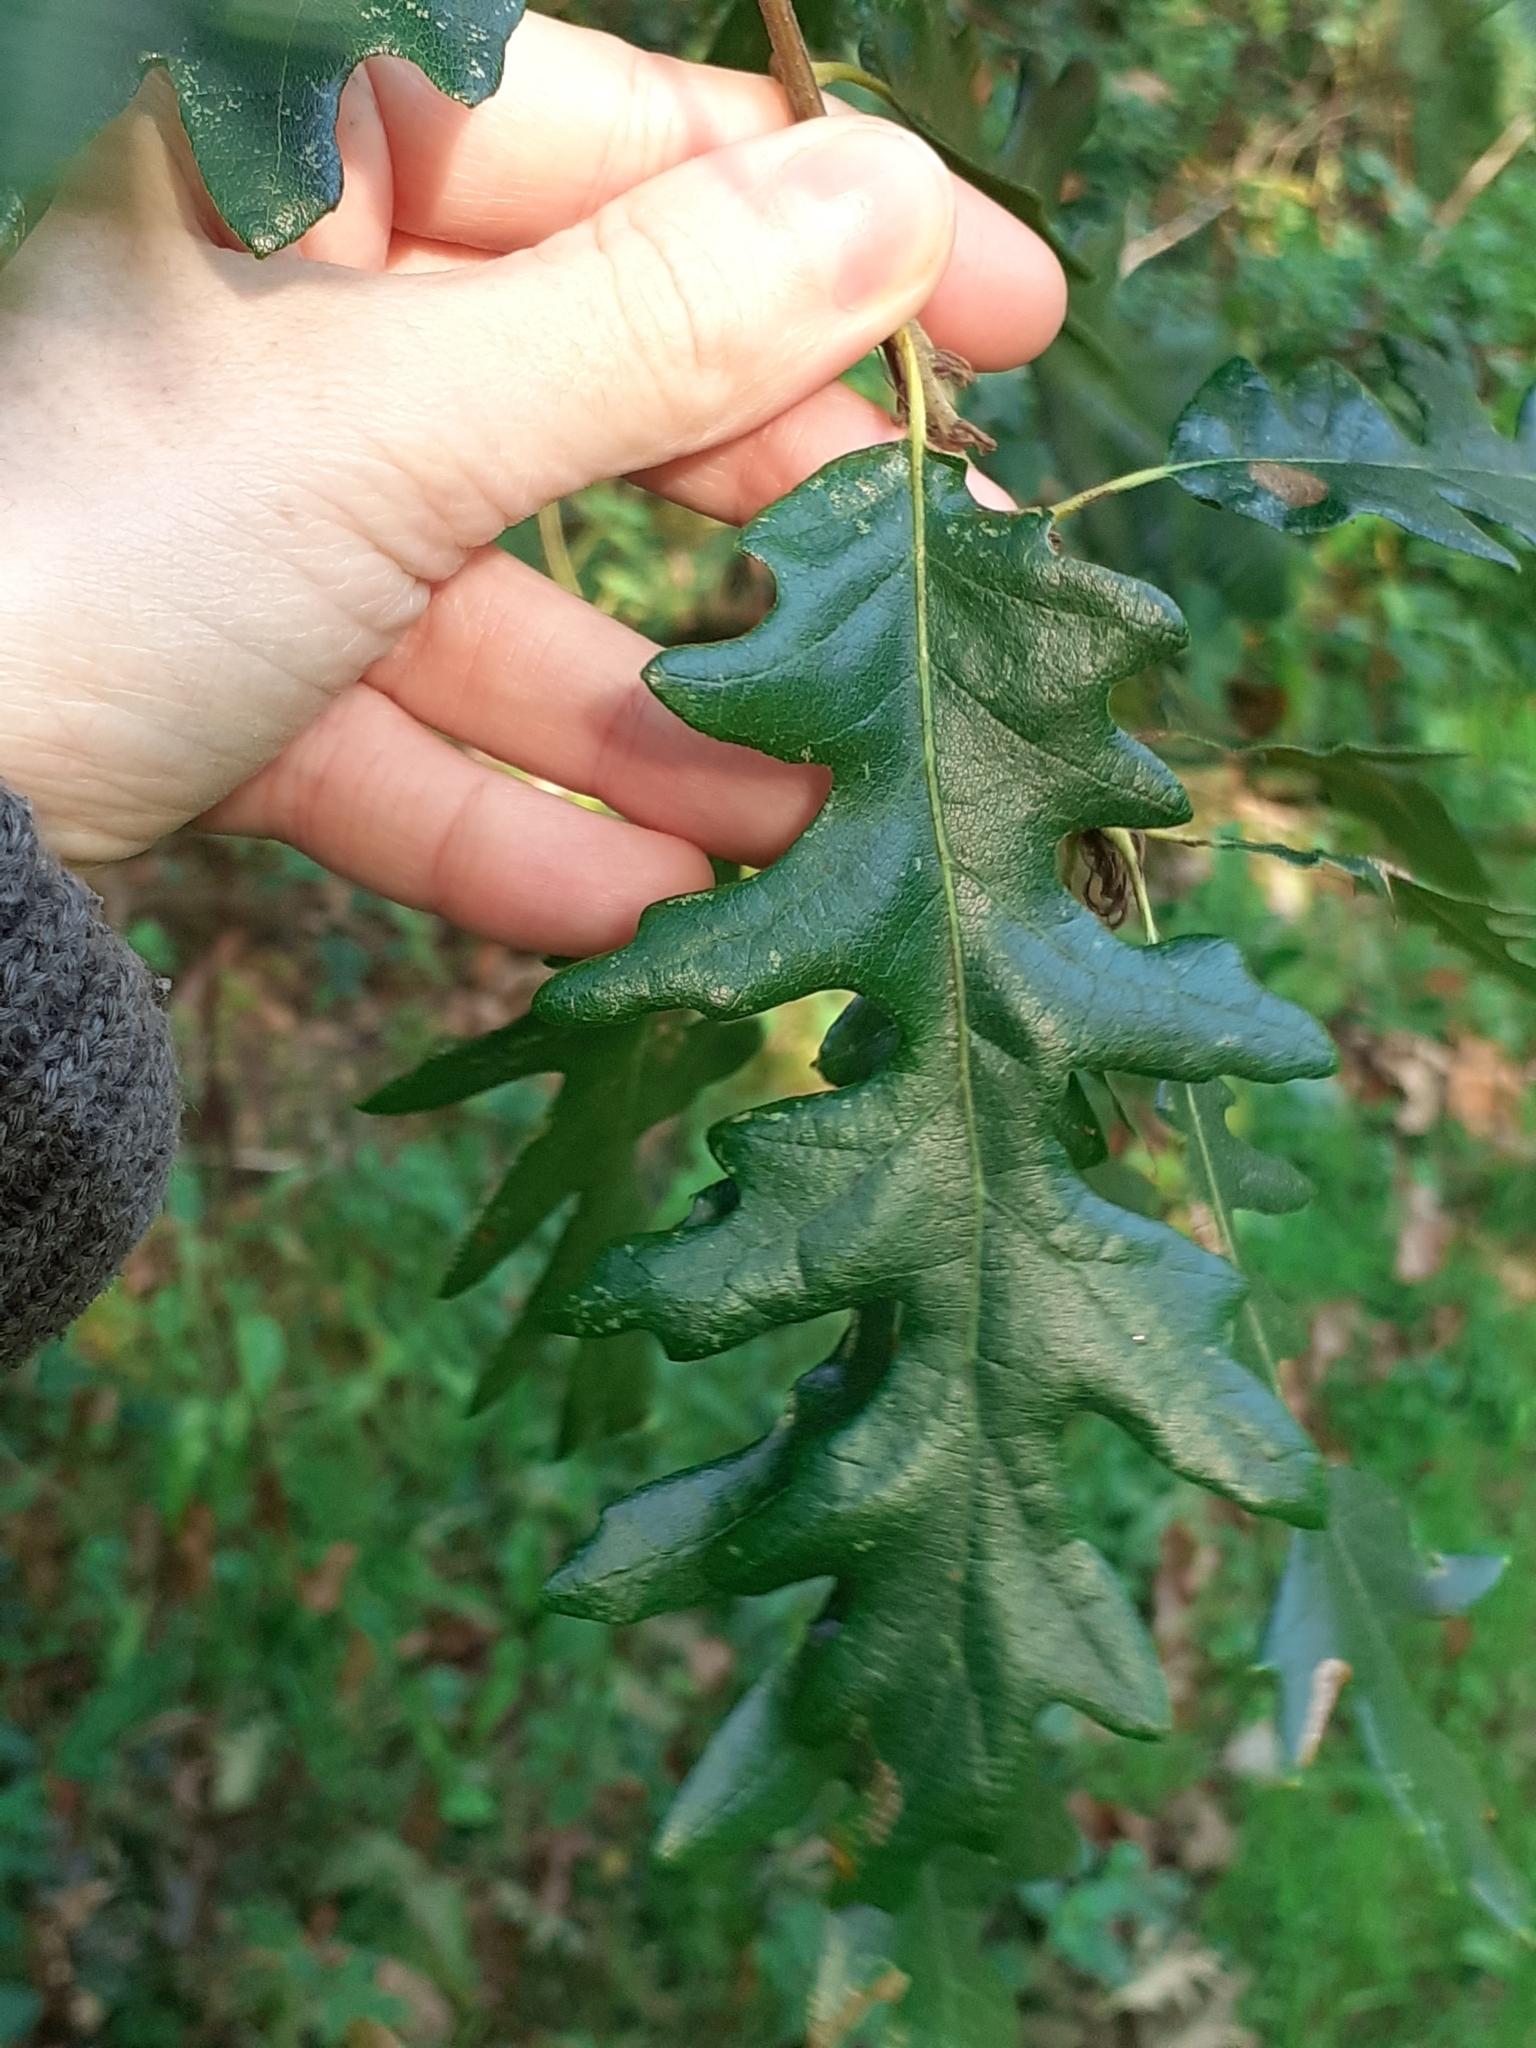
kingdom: Plantae
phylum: Tracheophyta
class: Magnoliopsida
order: Fagales
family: Fagaceae
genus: Quercus
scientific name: Quercus cerris
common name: Turkey oak
